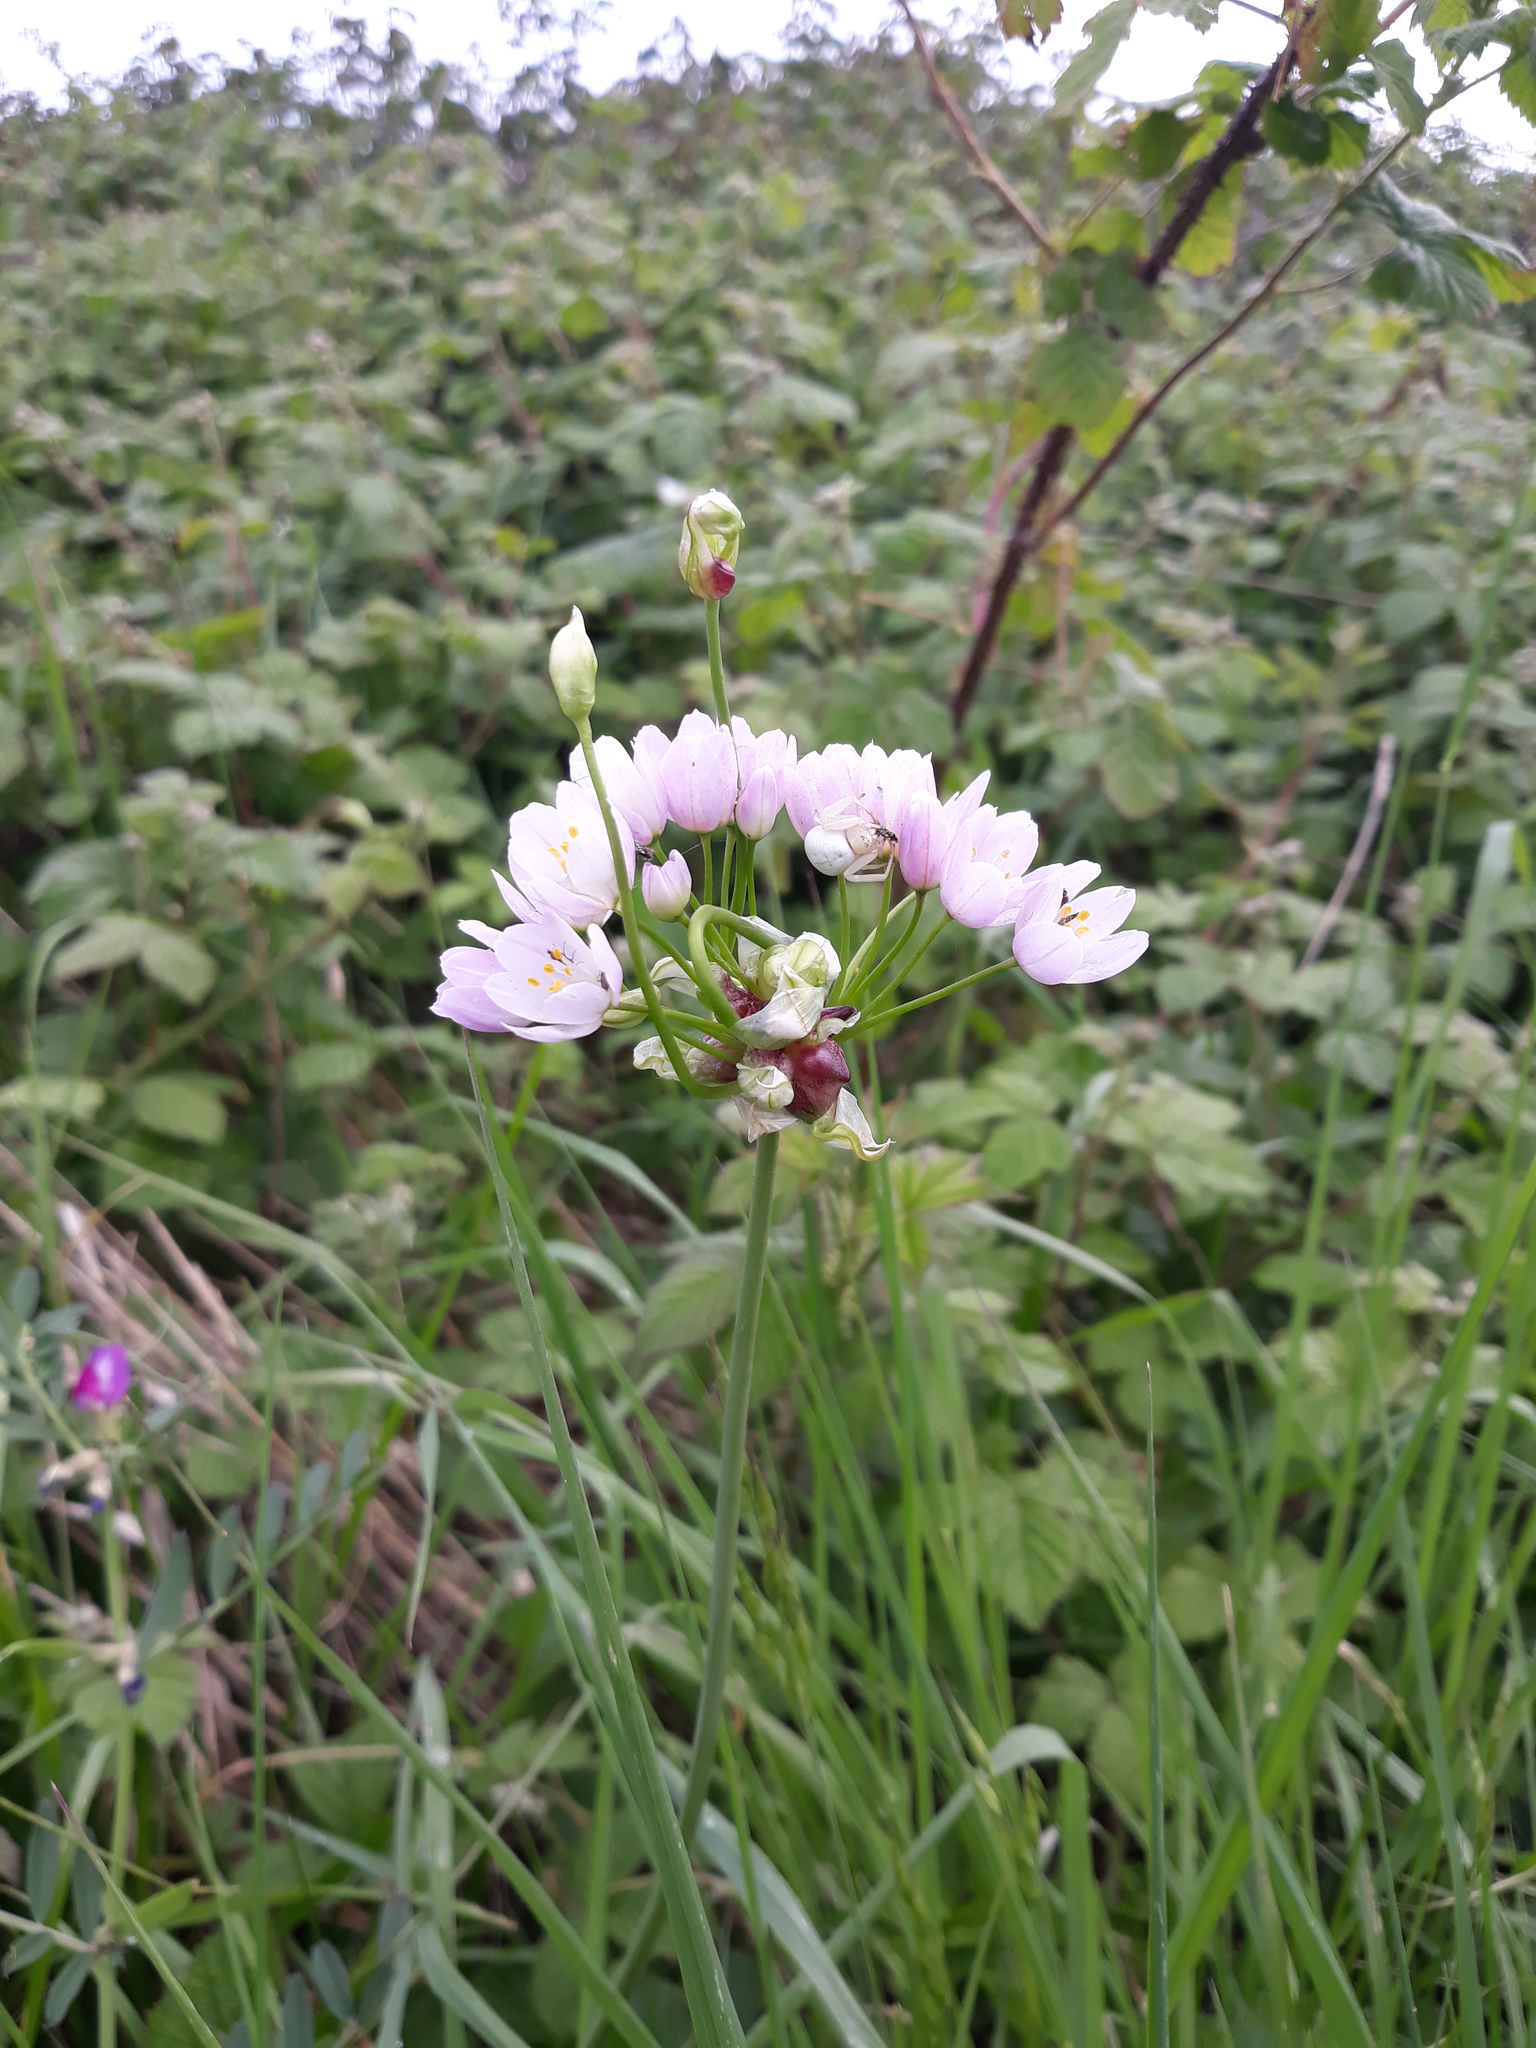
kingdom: Plantae
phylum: Tracheophyta
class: Liliopsida
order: Asparagales
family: Amaryllidaceae
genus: Allium
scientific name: Allium roseum
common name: Rosy garlic
